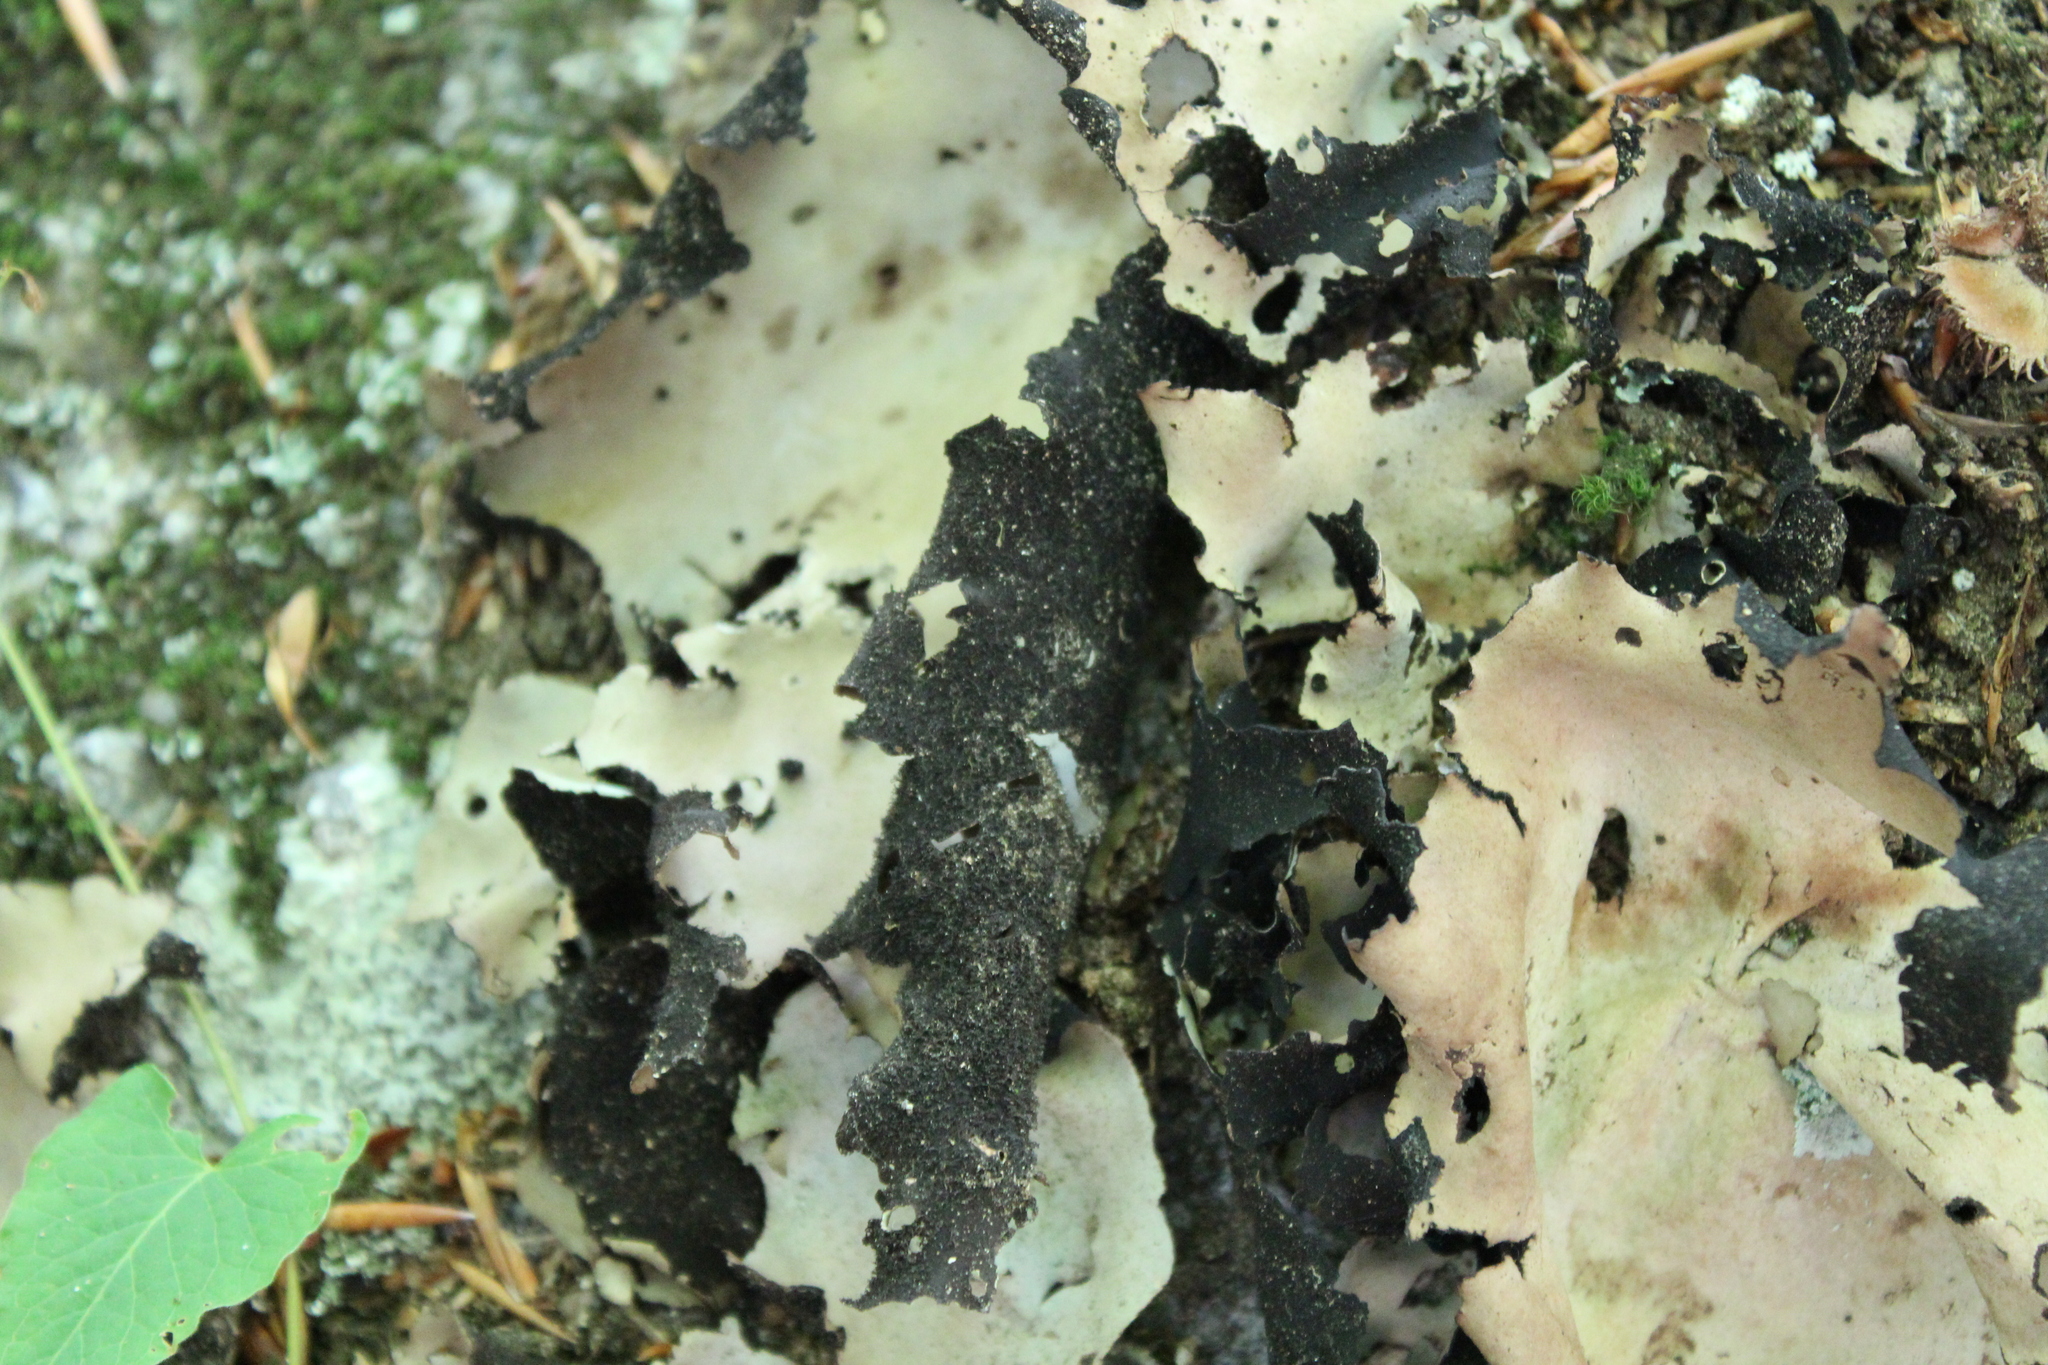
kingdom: Fungi
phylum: Ascomycota
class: Lecanoromycetes
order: Umbilicariales
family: Umbilicariaceae
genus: Umbilicaria
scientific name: Umbilicaria mammulata
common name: Smooth rock tripe
